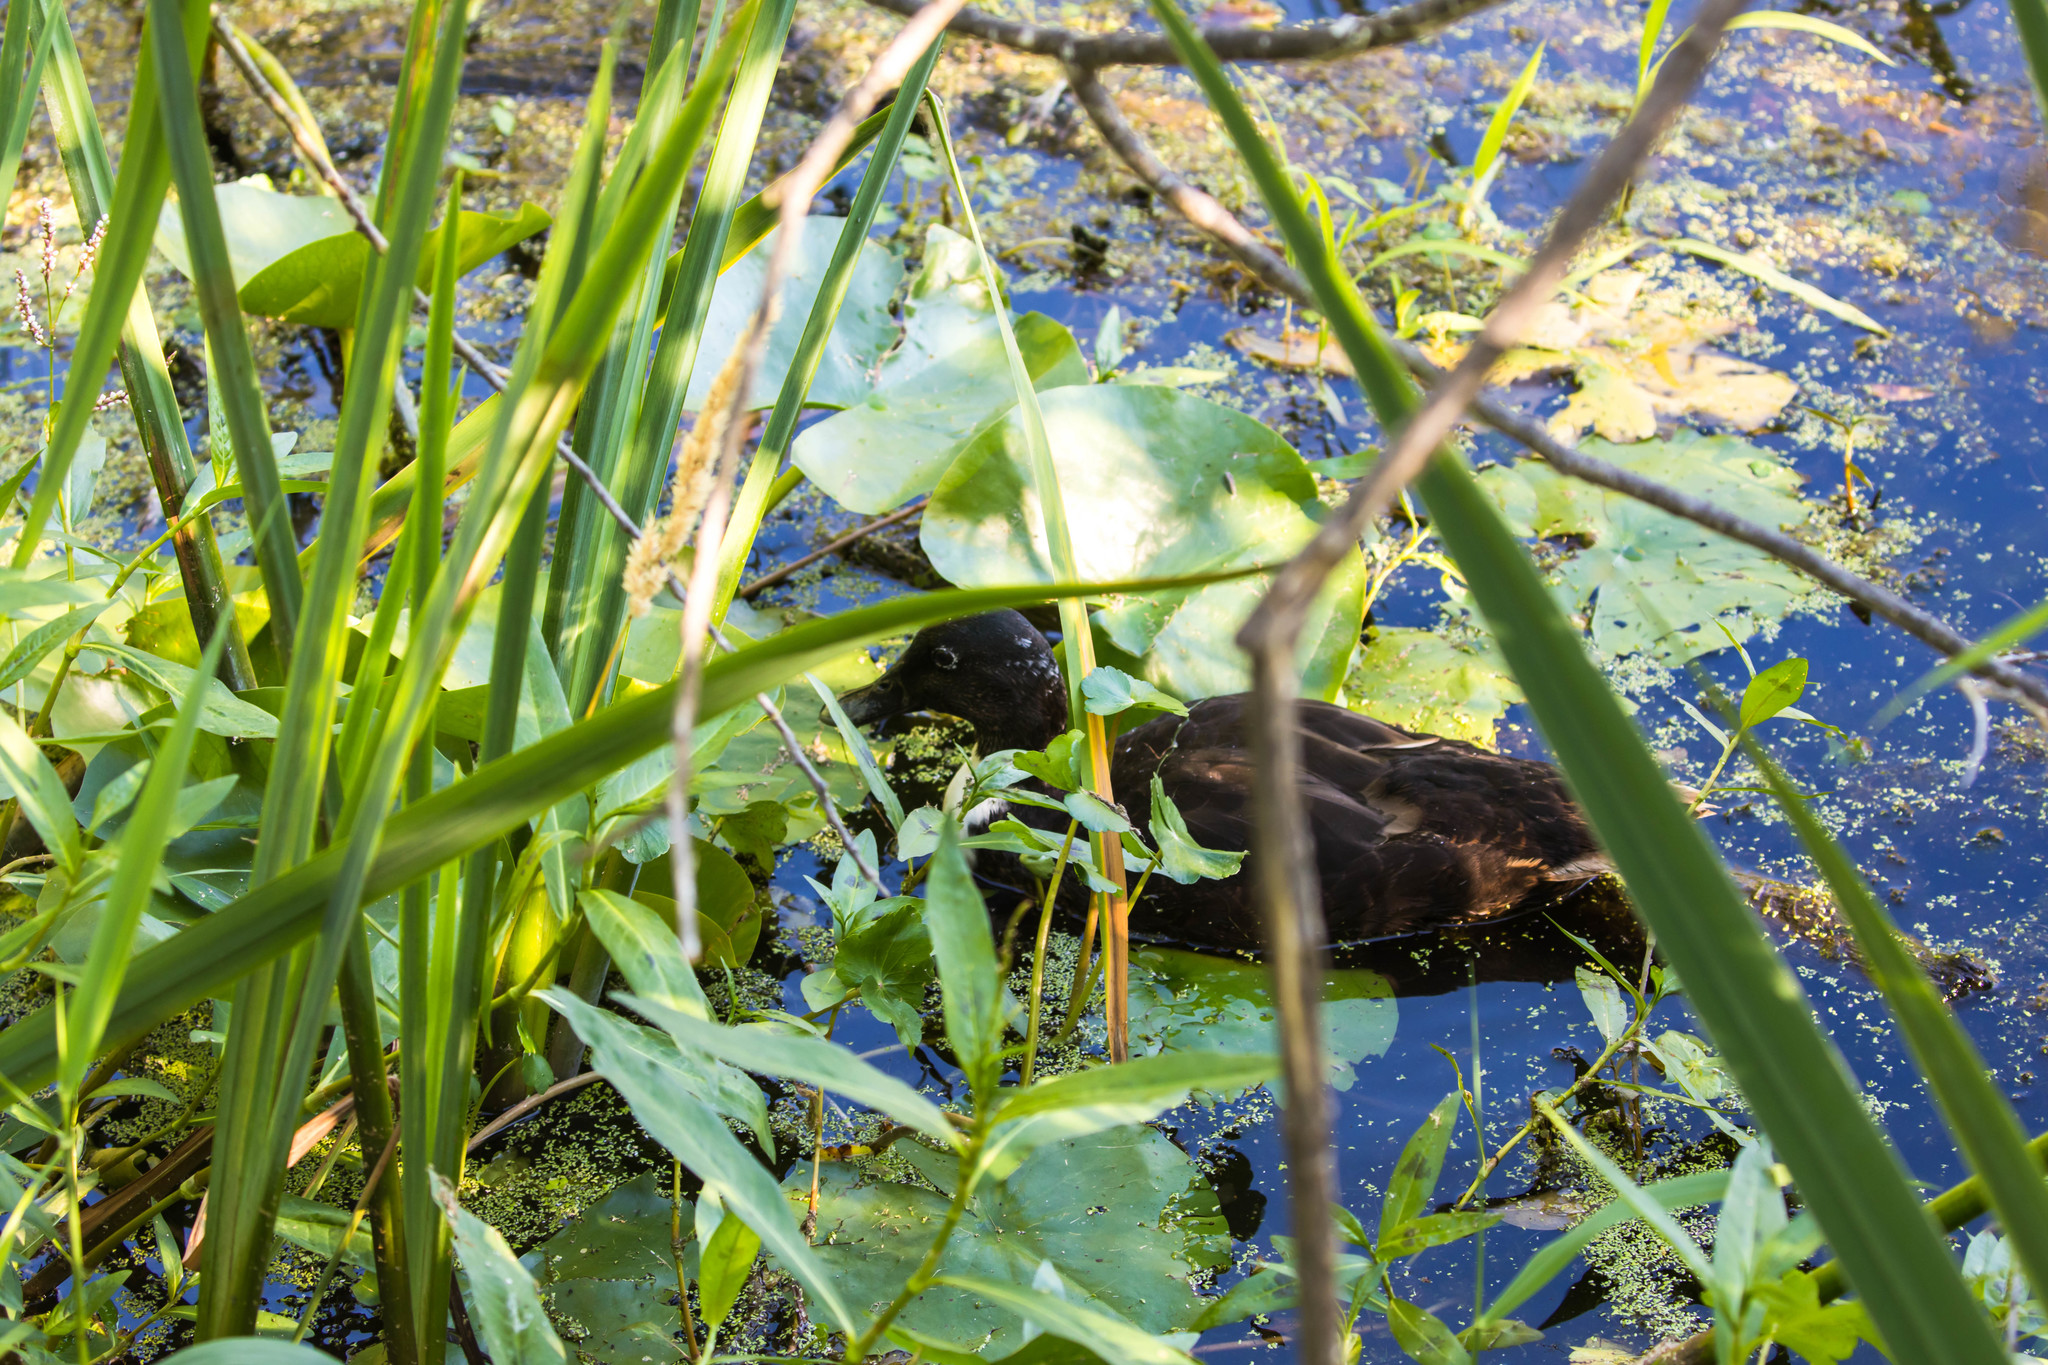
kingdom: Animalia
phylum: Chordata
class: Aves
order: Anseriformes
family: Anatidae
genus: Anas
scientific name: Anas platyrhynchos
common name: Mallard
